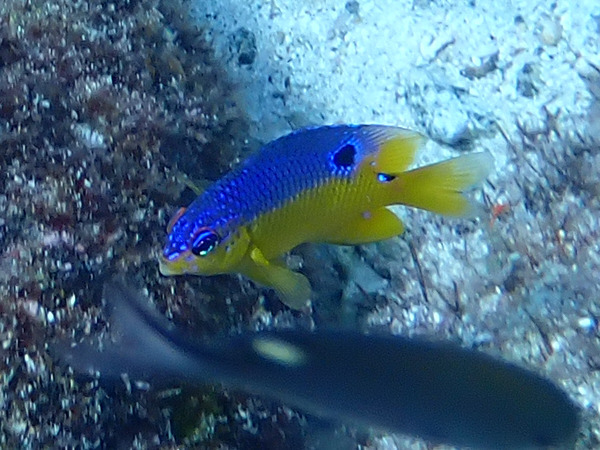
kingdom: Animalia
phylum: Chordata
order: Perciformes
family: Pomacentridae
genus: Stegastes
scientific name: Stegastes flavilatus
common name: Beaubrummel
